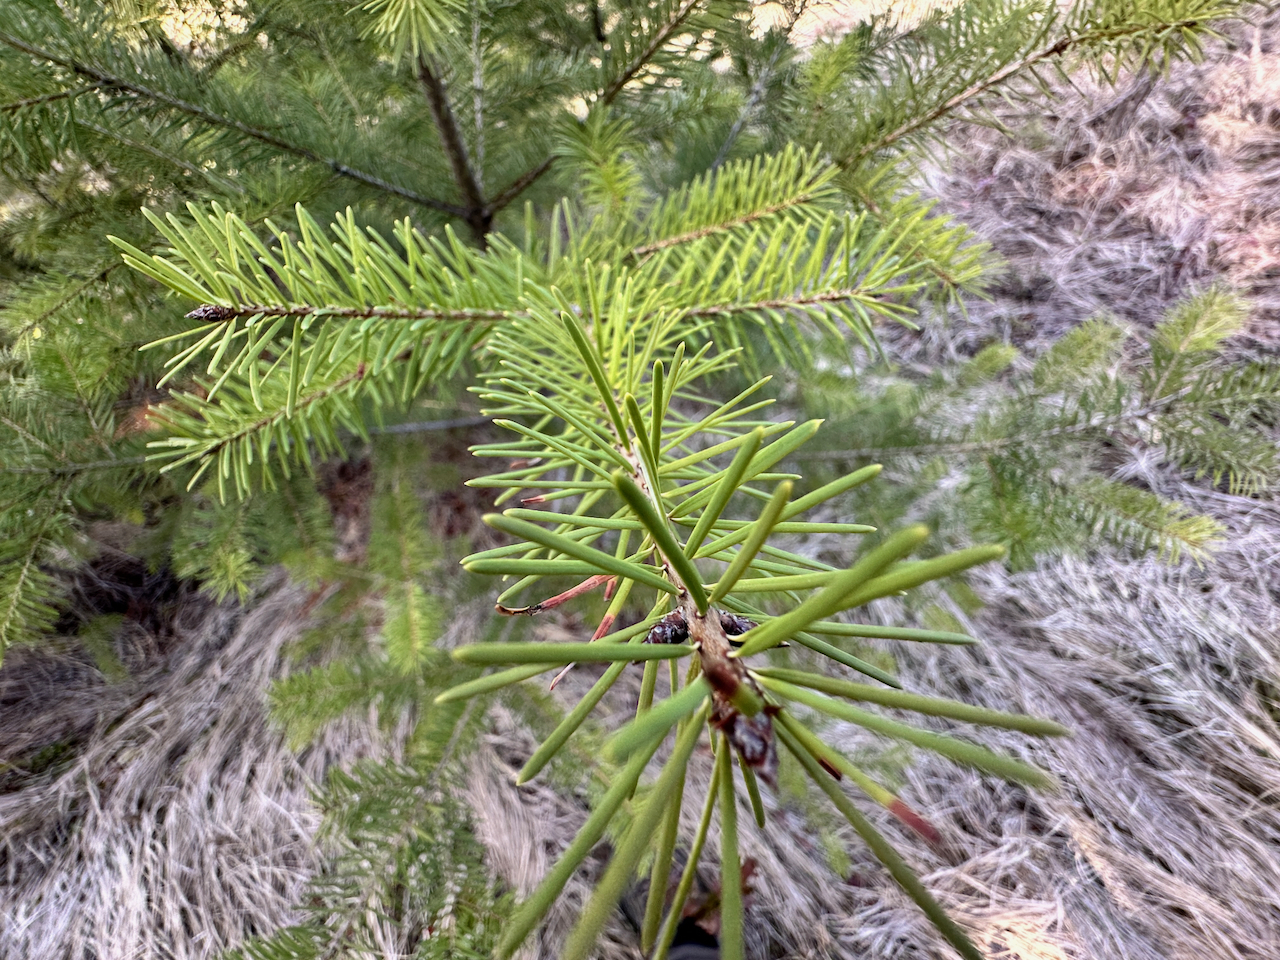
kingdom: Plantae
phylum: Tracheophyta
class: Pinopsida
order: Pinales
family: Pinaceae
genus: Pseudotsuga
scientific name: Pseudotsuga menziesii
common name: Douglas fir
